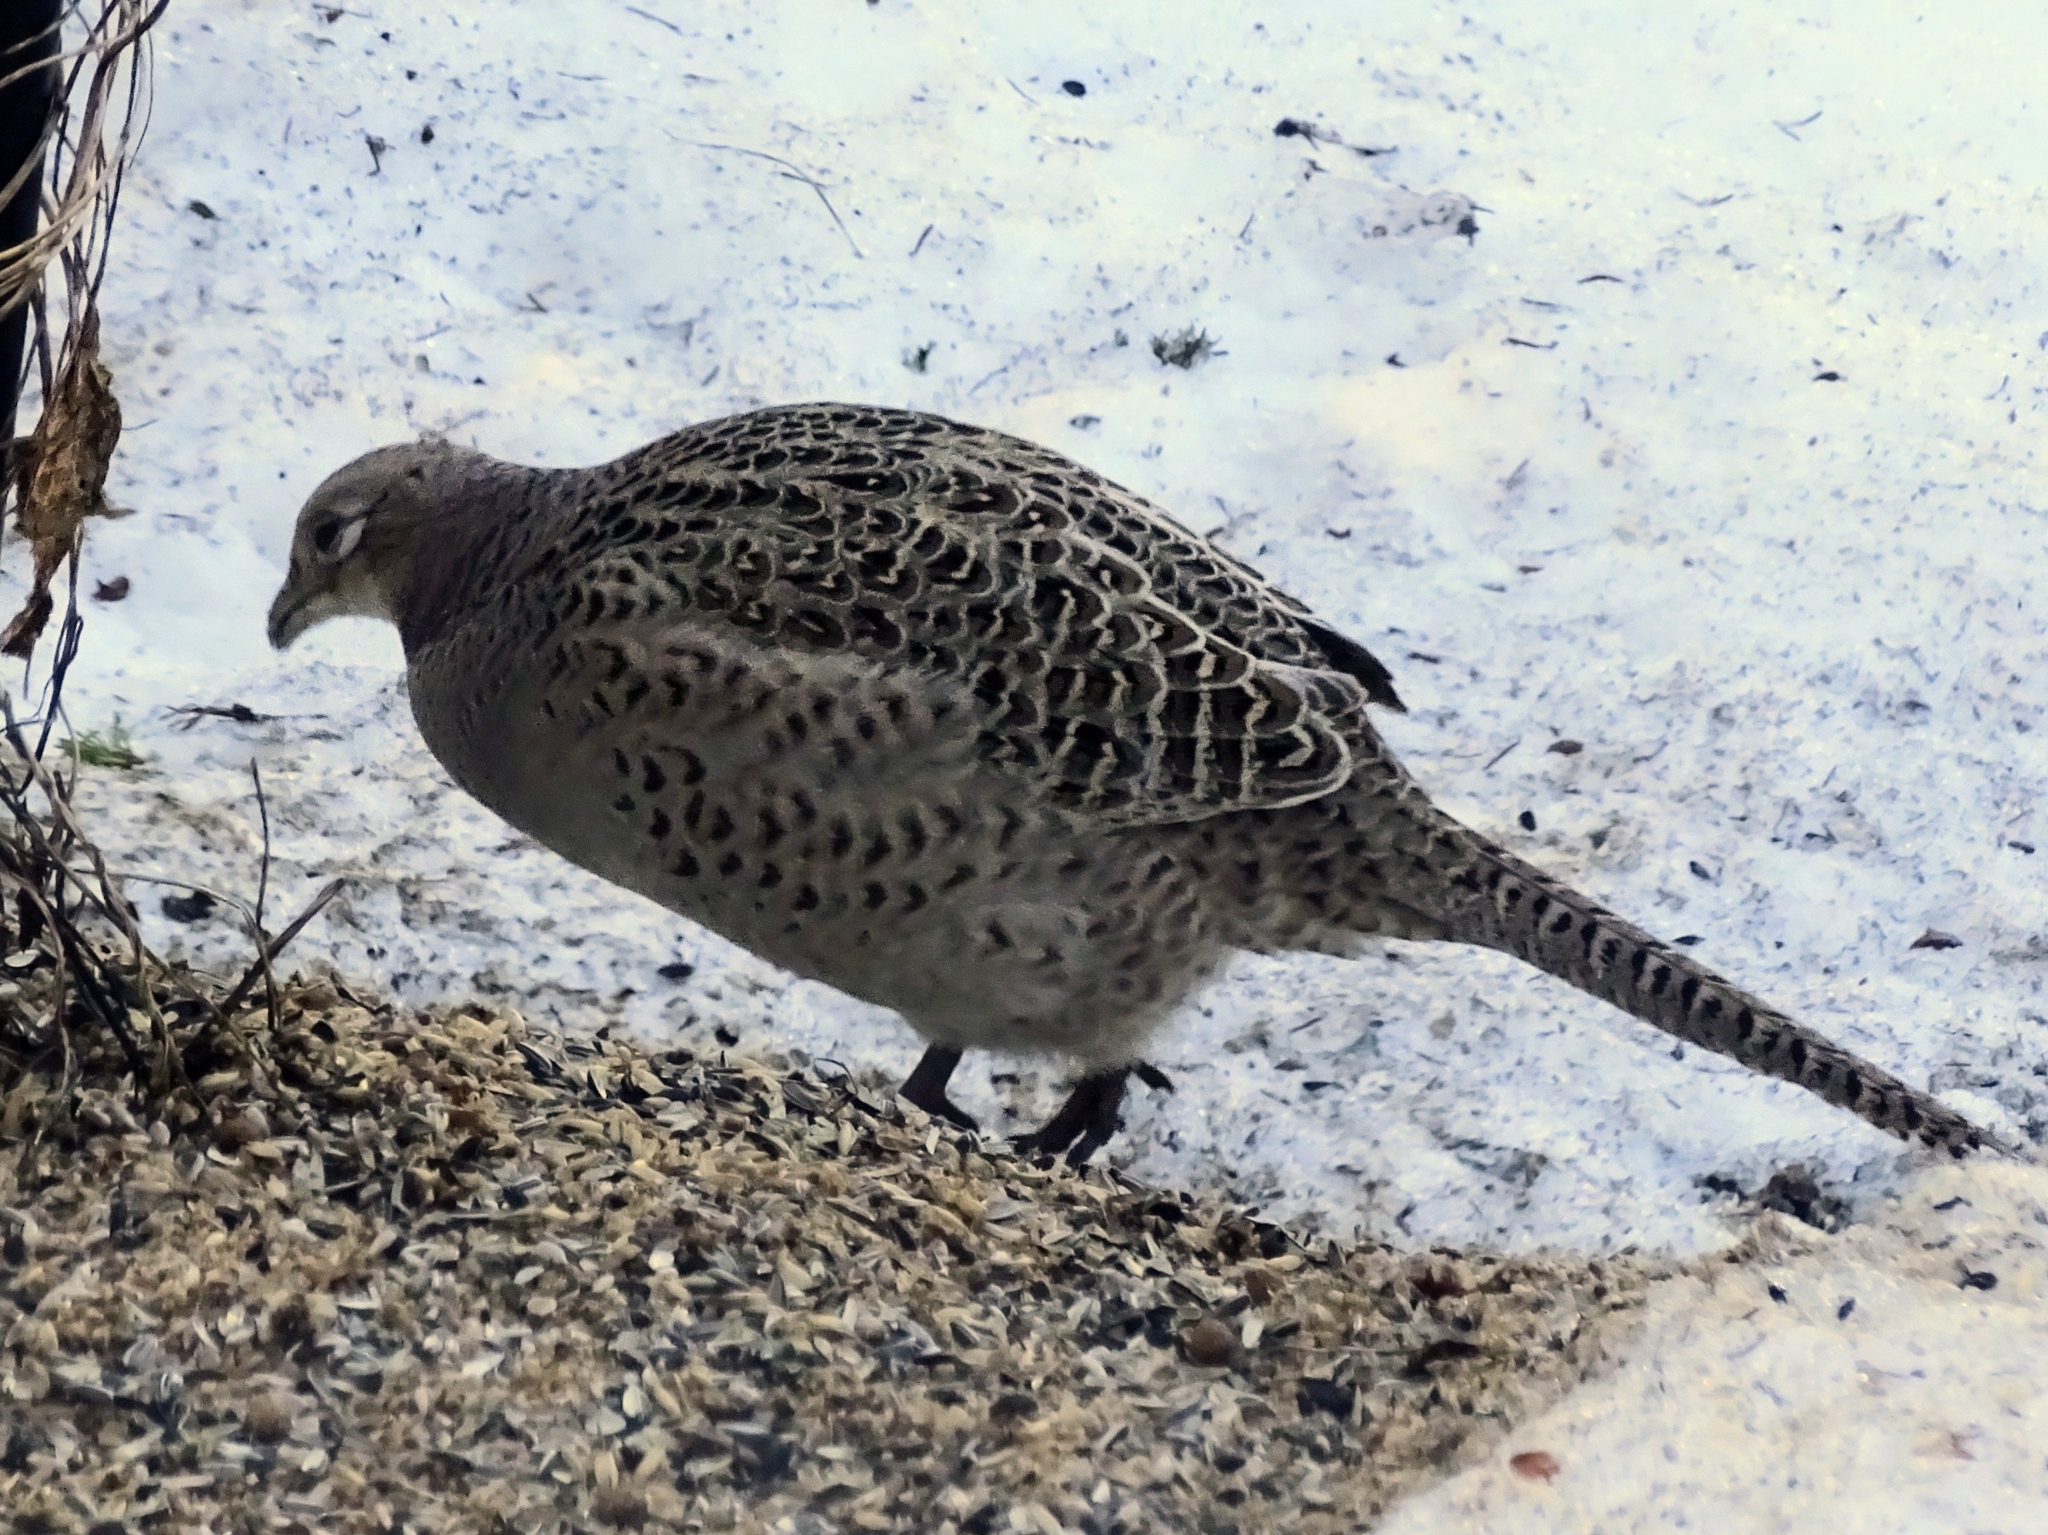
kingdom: Animalia
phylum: Chordata
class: Aves
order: Galliformes
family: Phasianidae
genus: Phasianus
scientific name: Phasianus colchicus
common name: Common pheasant
